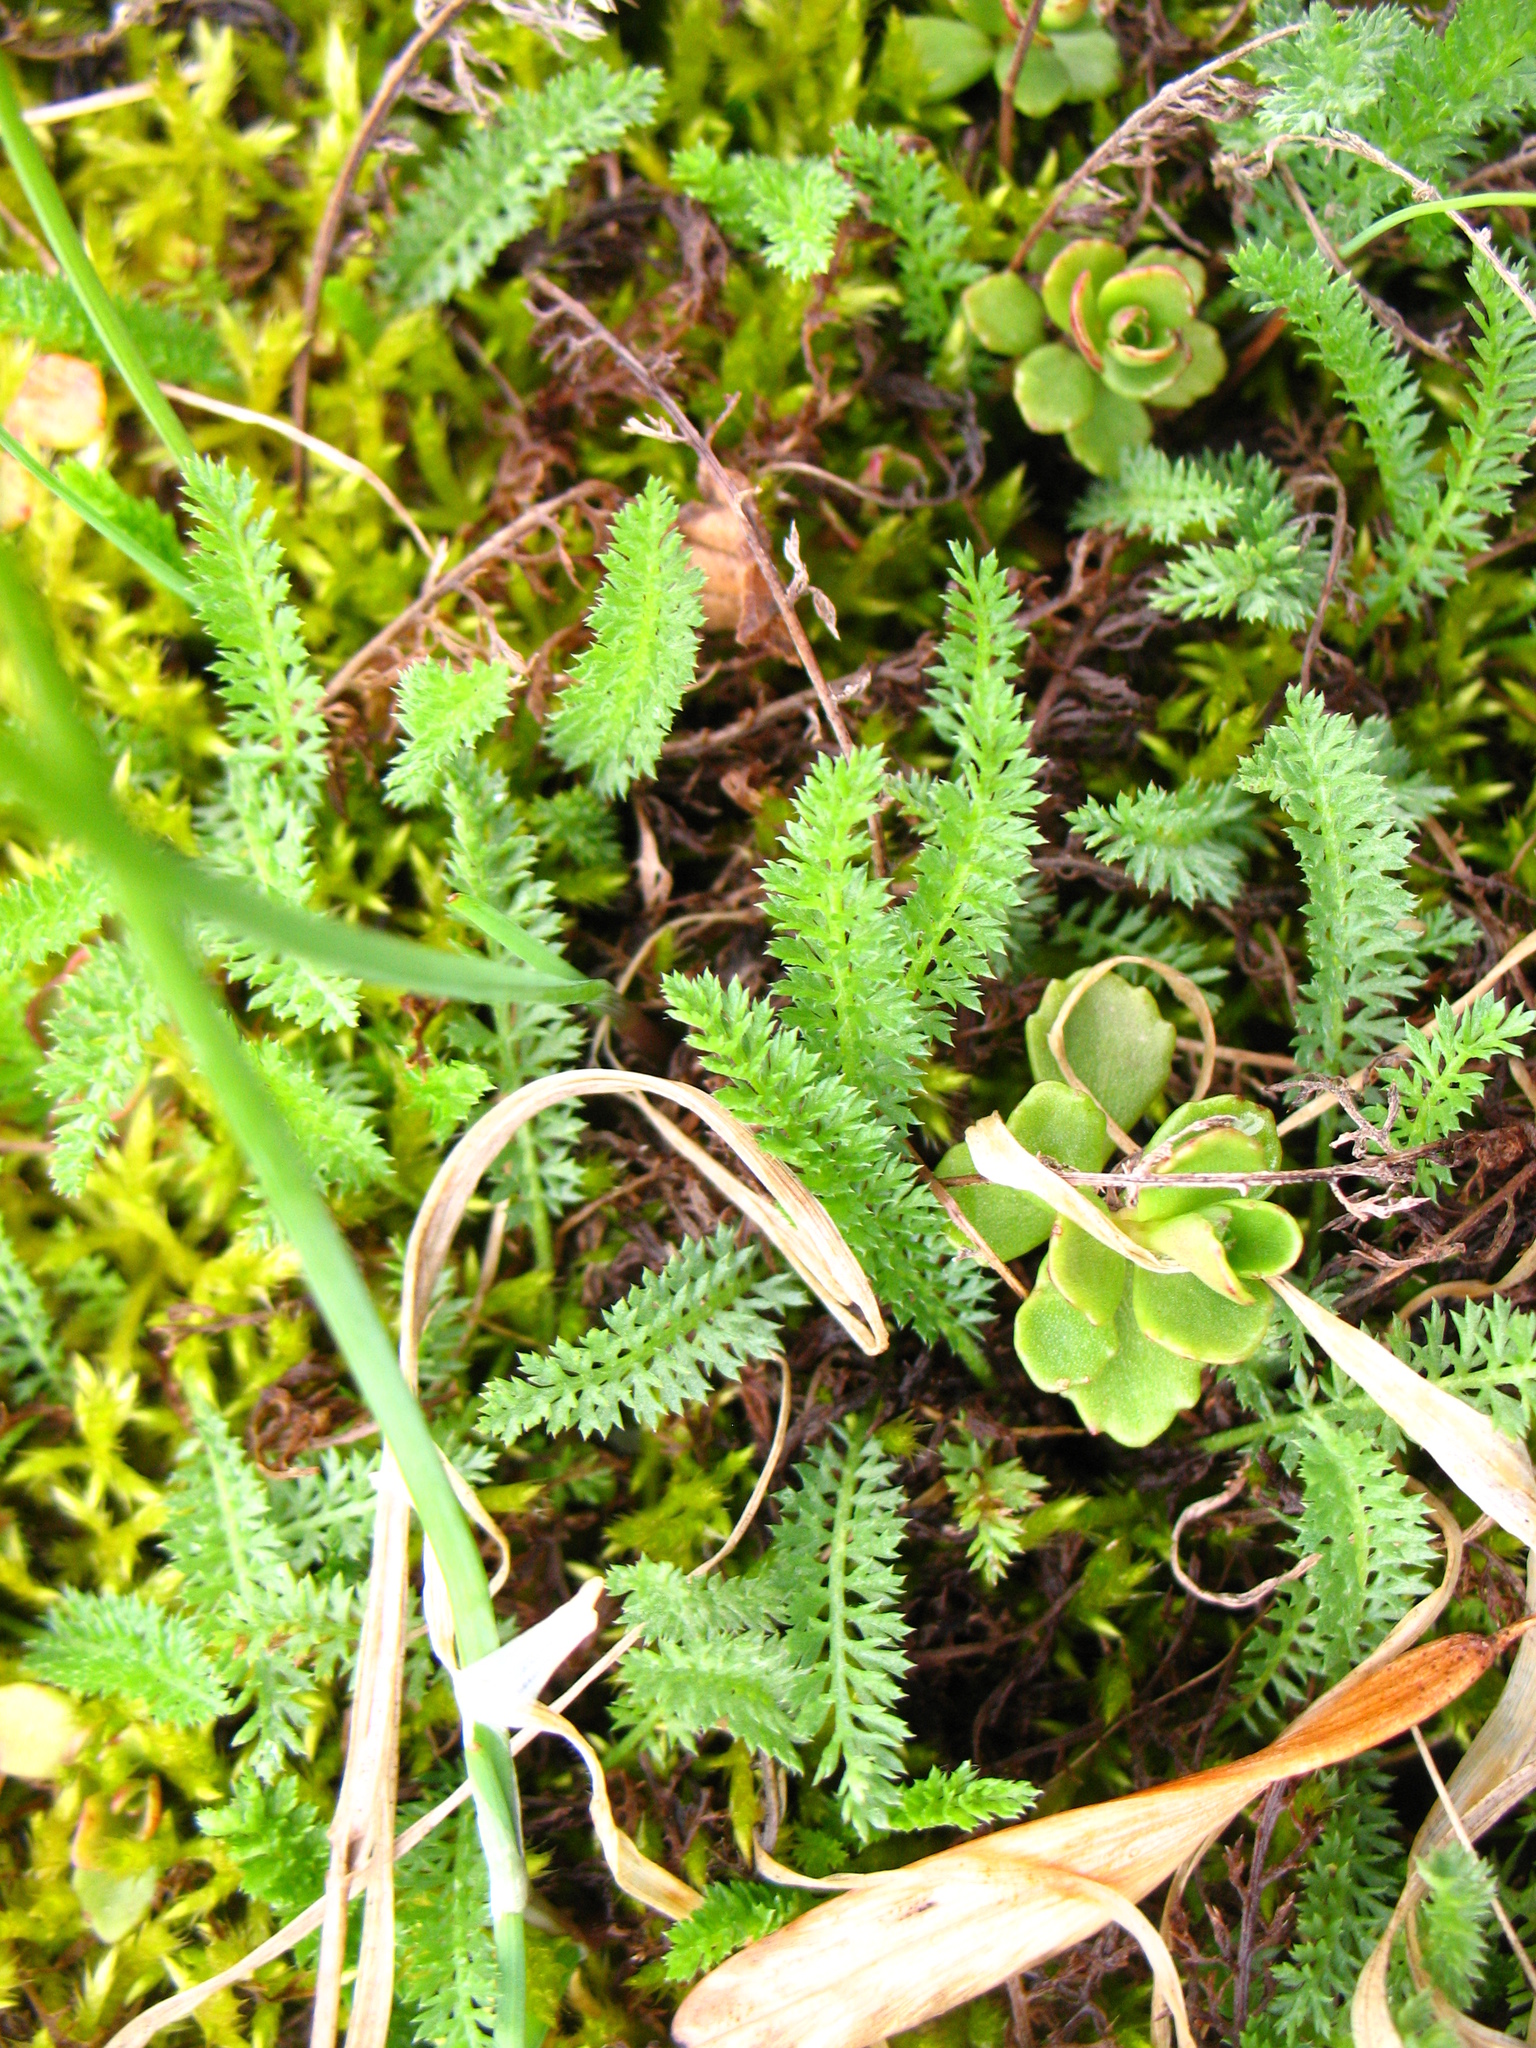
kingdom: Plantae
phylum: Tracheophyta
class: Magnoliopsida
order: Asterales
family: Asteraceae
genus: Achillea
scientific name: Achillea millefolium
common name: Yarrow
